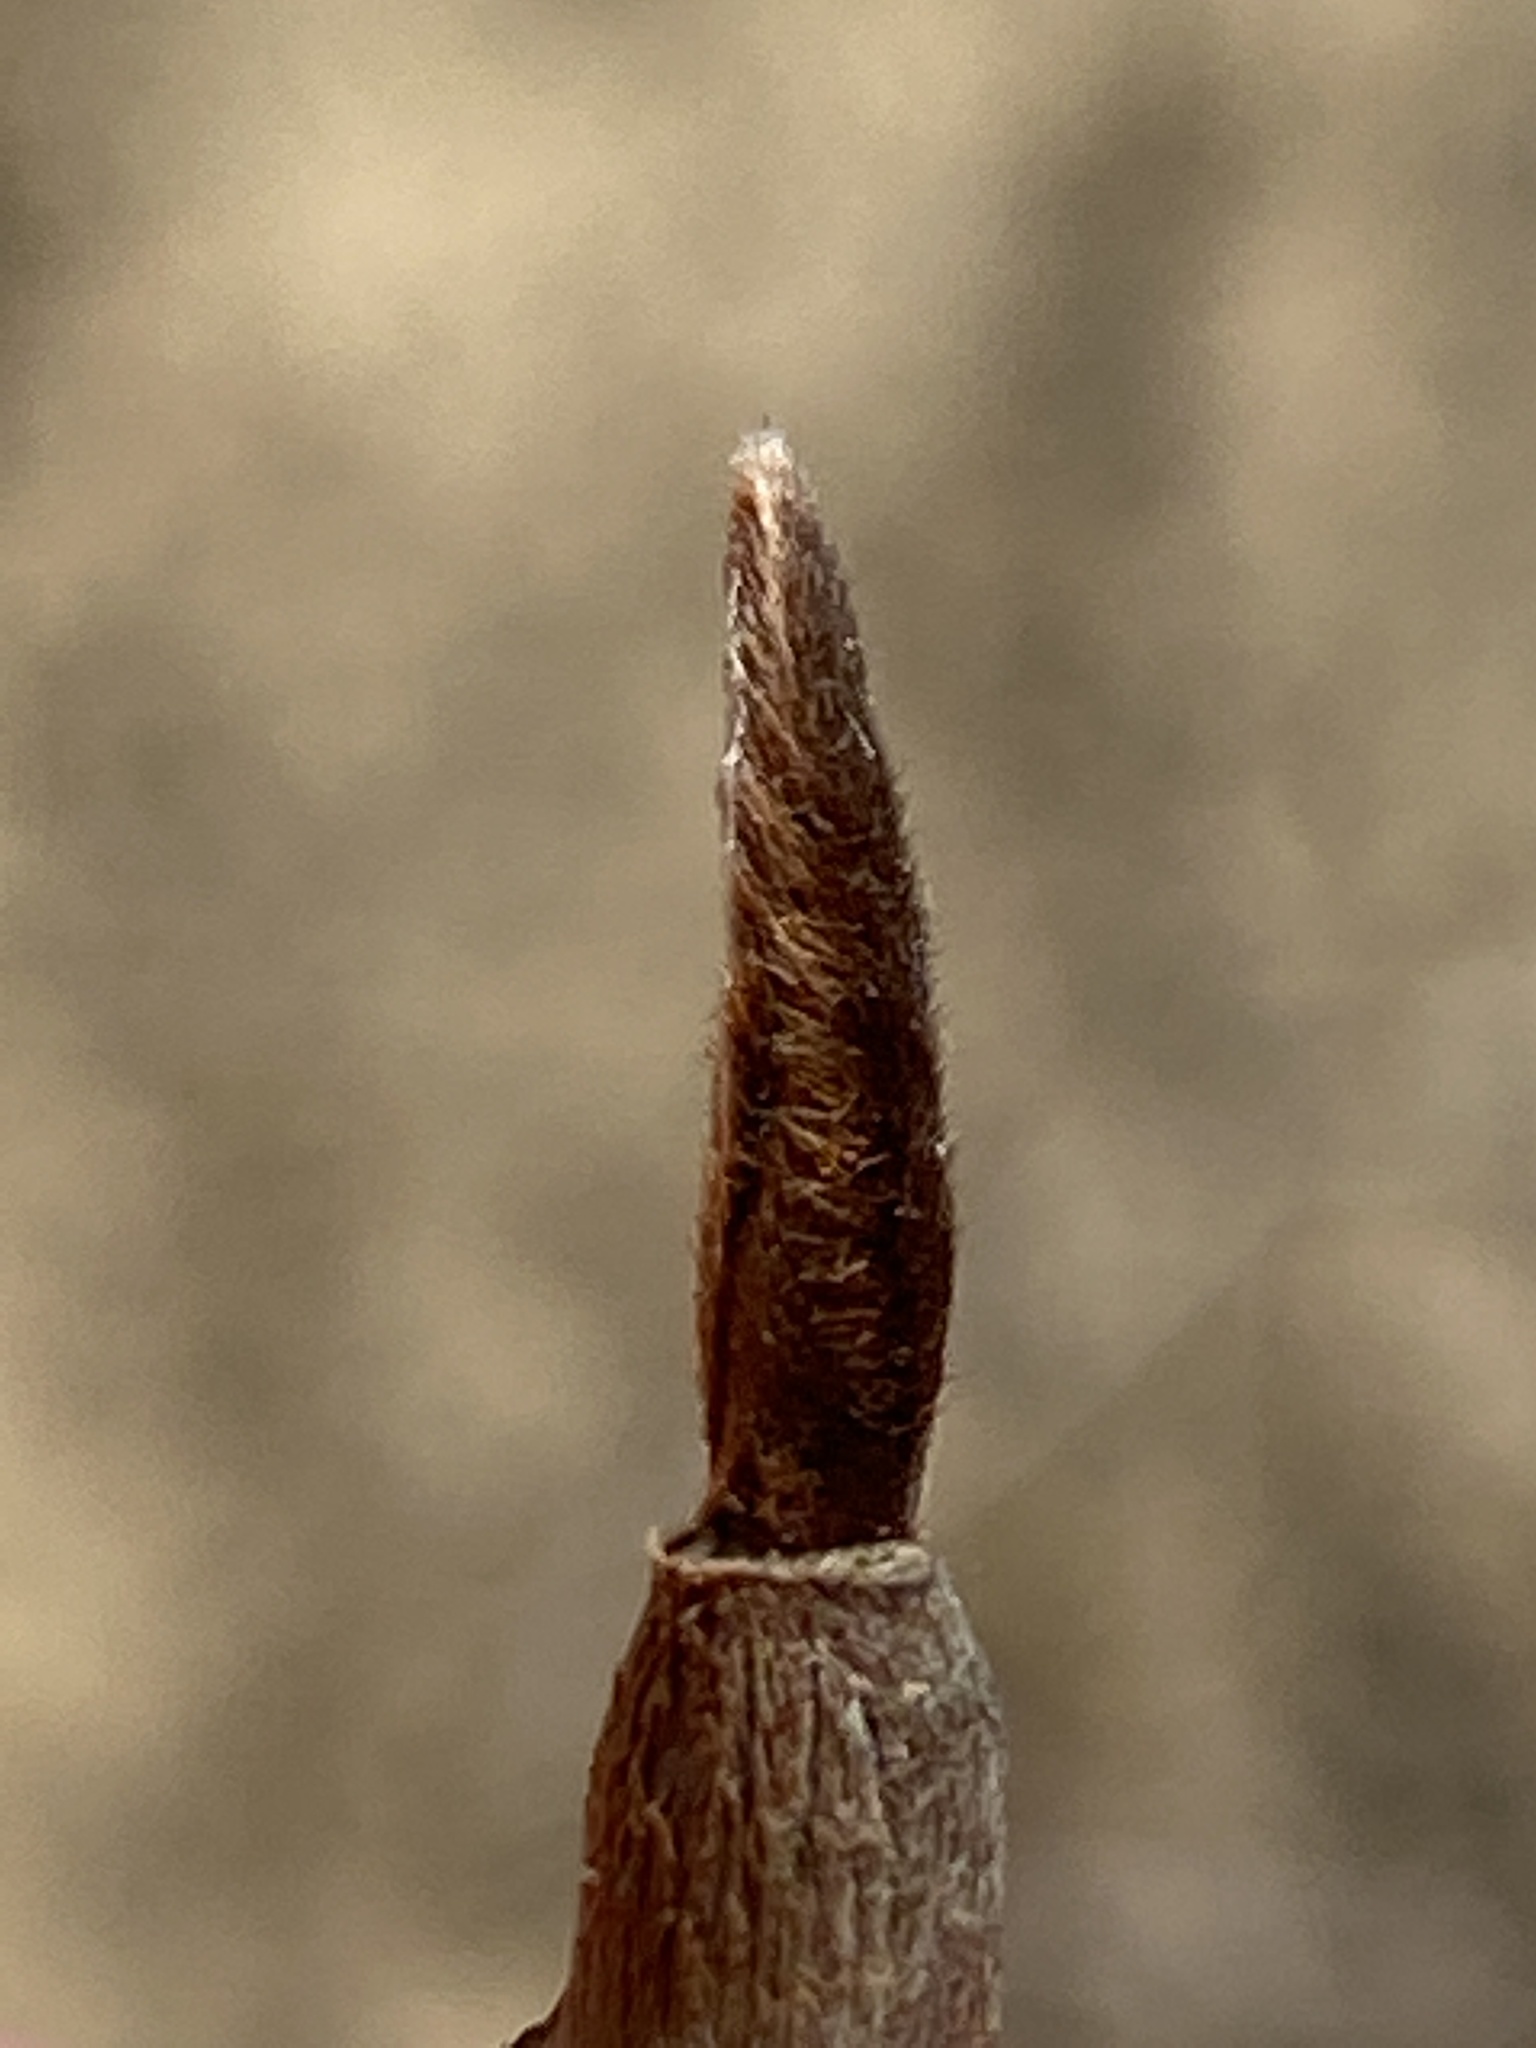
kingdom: Plantae
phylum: Tracheophyta
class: Magnoliopsida
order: Magnoliales
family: Annonaceae
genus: Asimina
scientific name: Asimina triloba
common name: Dog-banana
